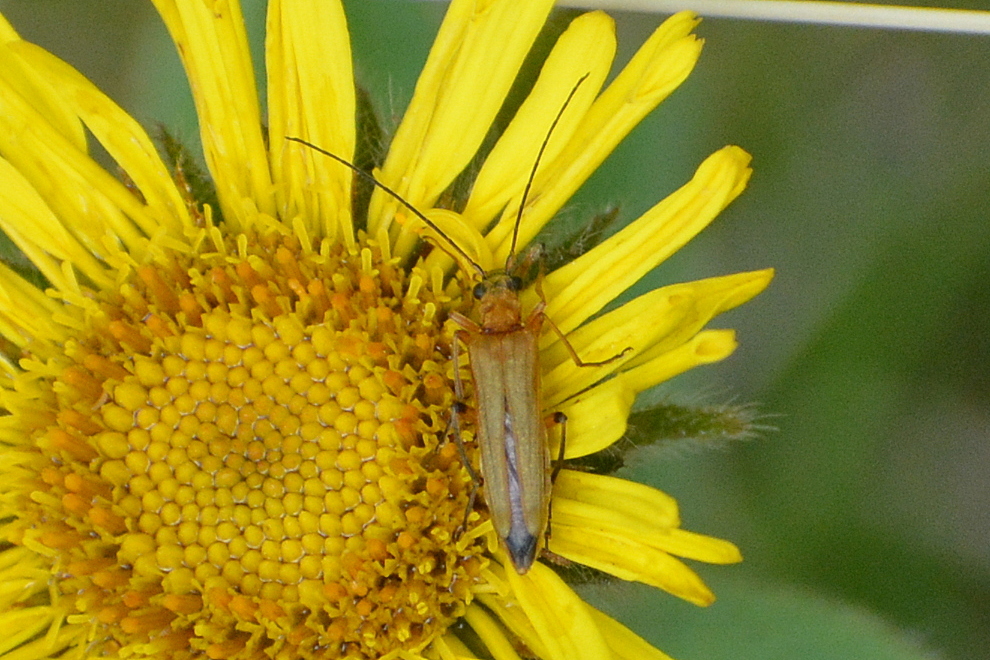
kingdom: Animalia
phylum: Arthropoda
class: Insecta
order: Coleoptera
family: Oedemeridae
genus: Oedemera
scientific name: Oedemera podagrariae
